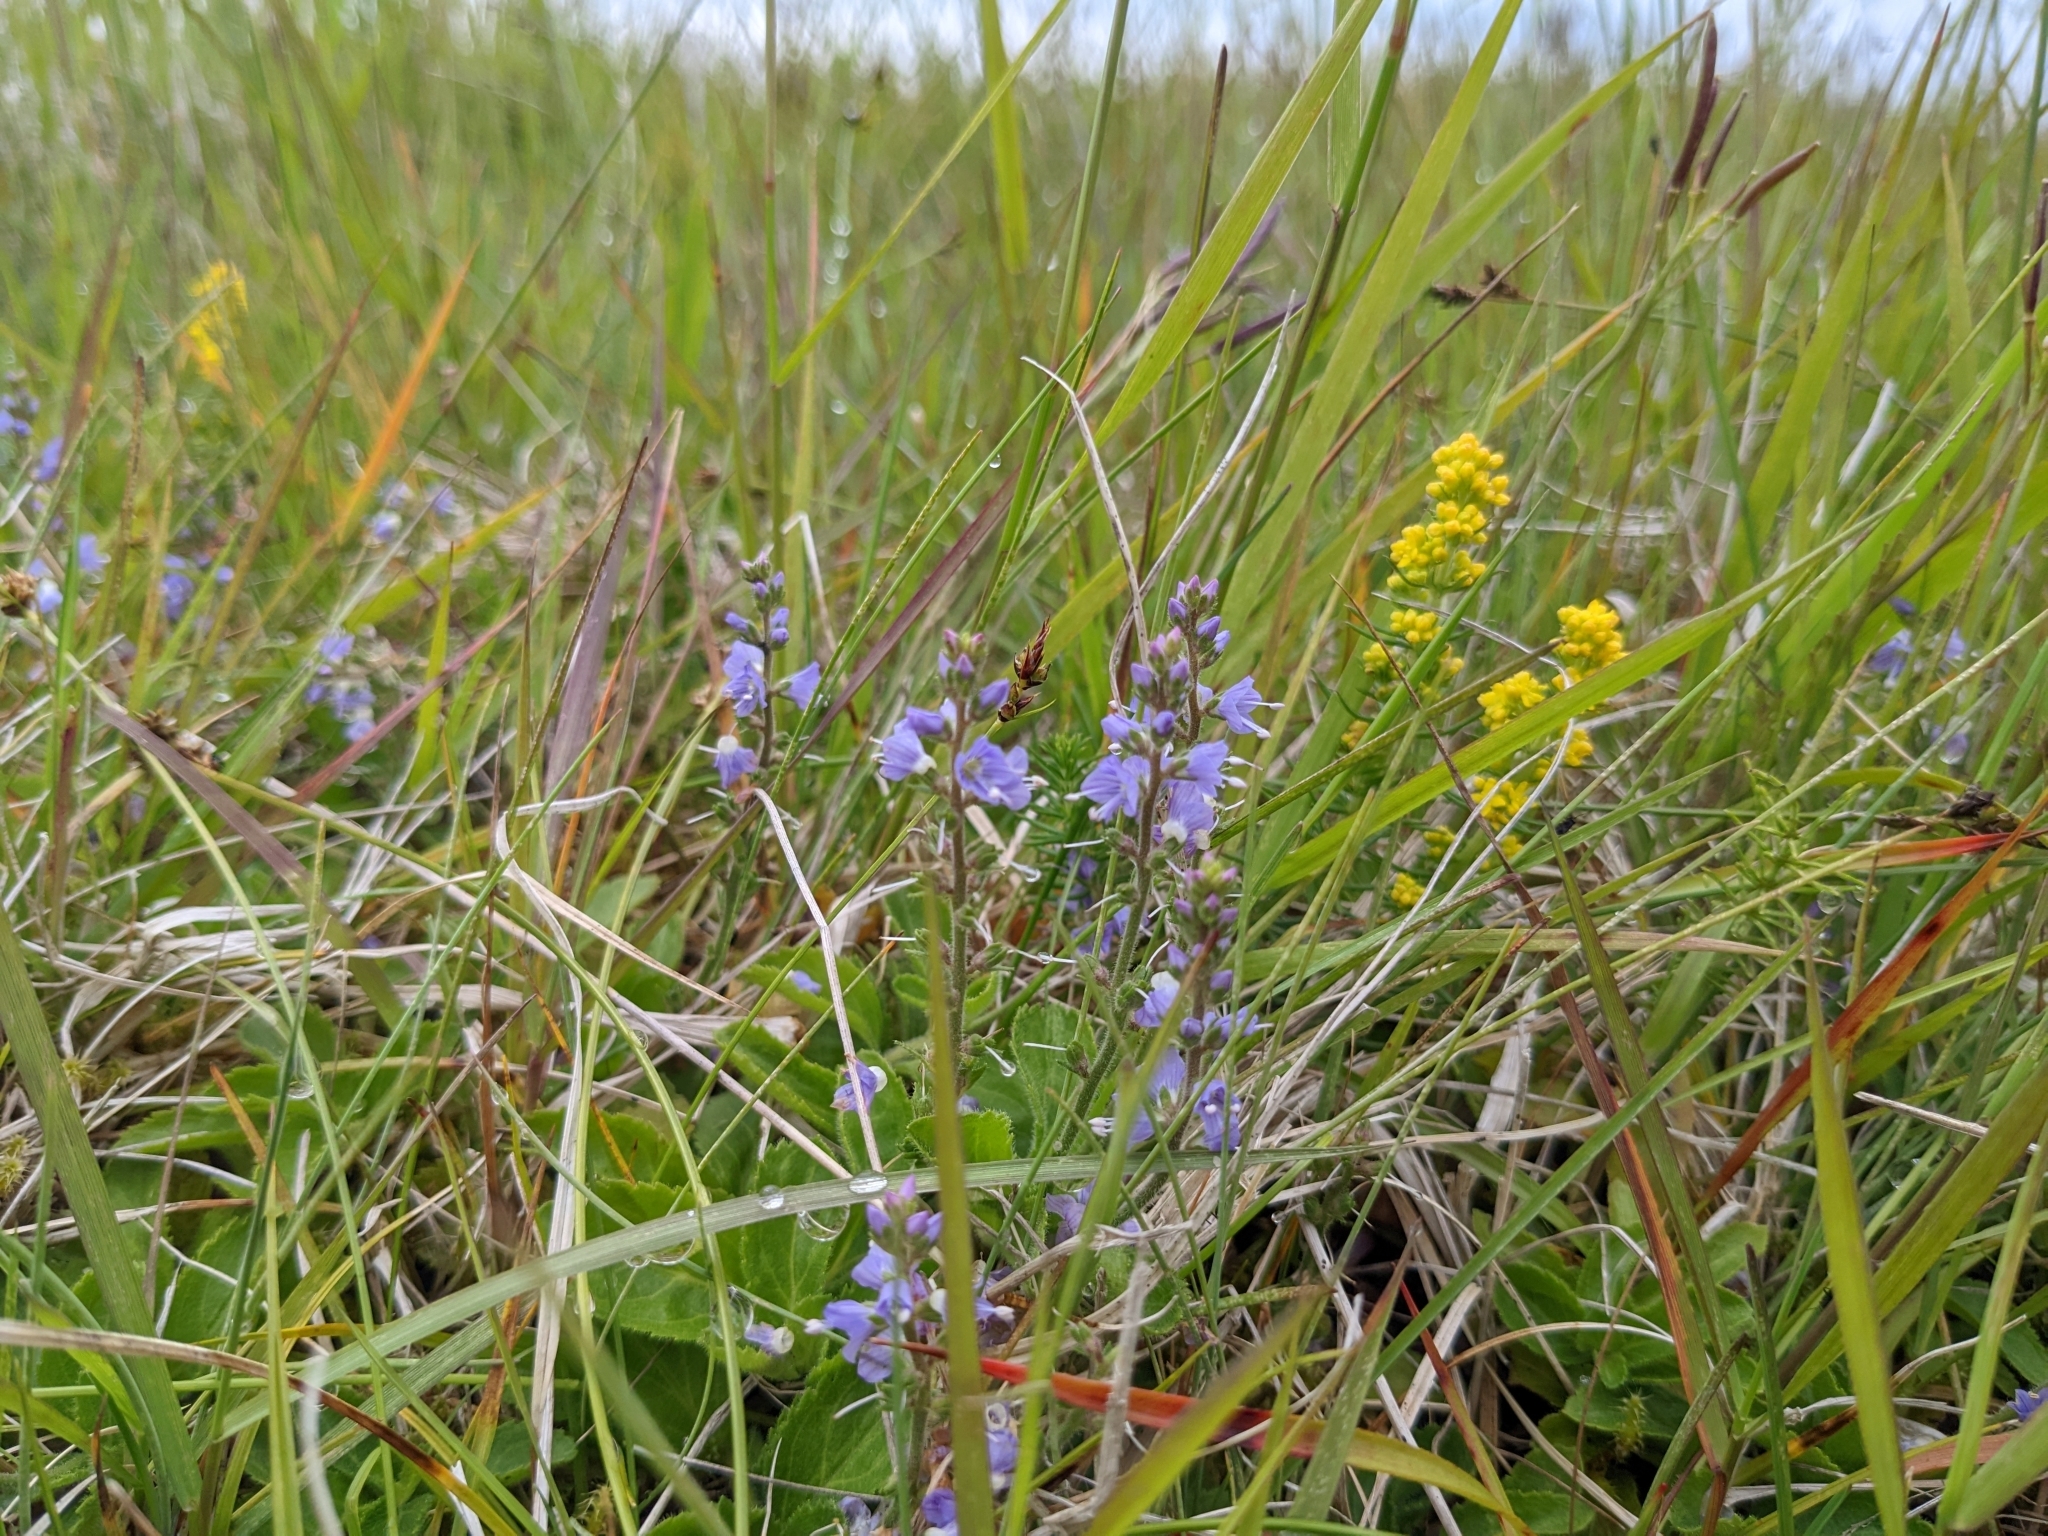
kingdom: Plantae
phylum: Tracheophyta
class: Magnoliopsida
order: Lamiales
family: Plantaginaceae
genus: Veronica
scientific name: Veronica officinalis
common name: Common speedwell
